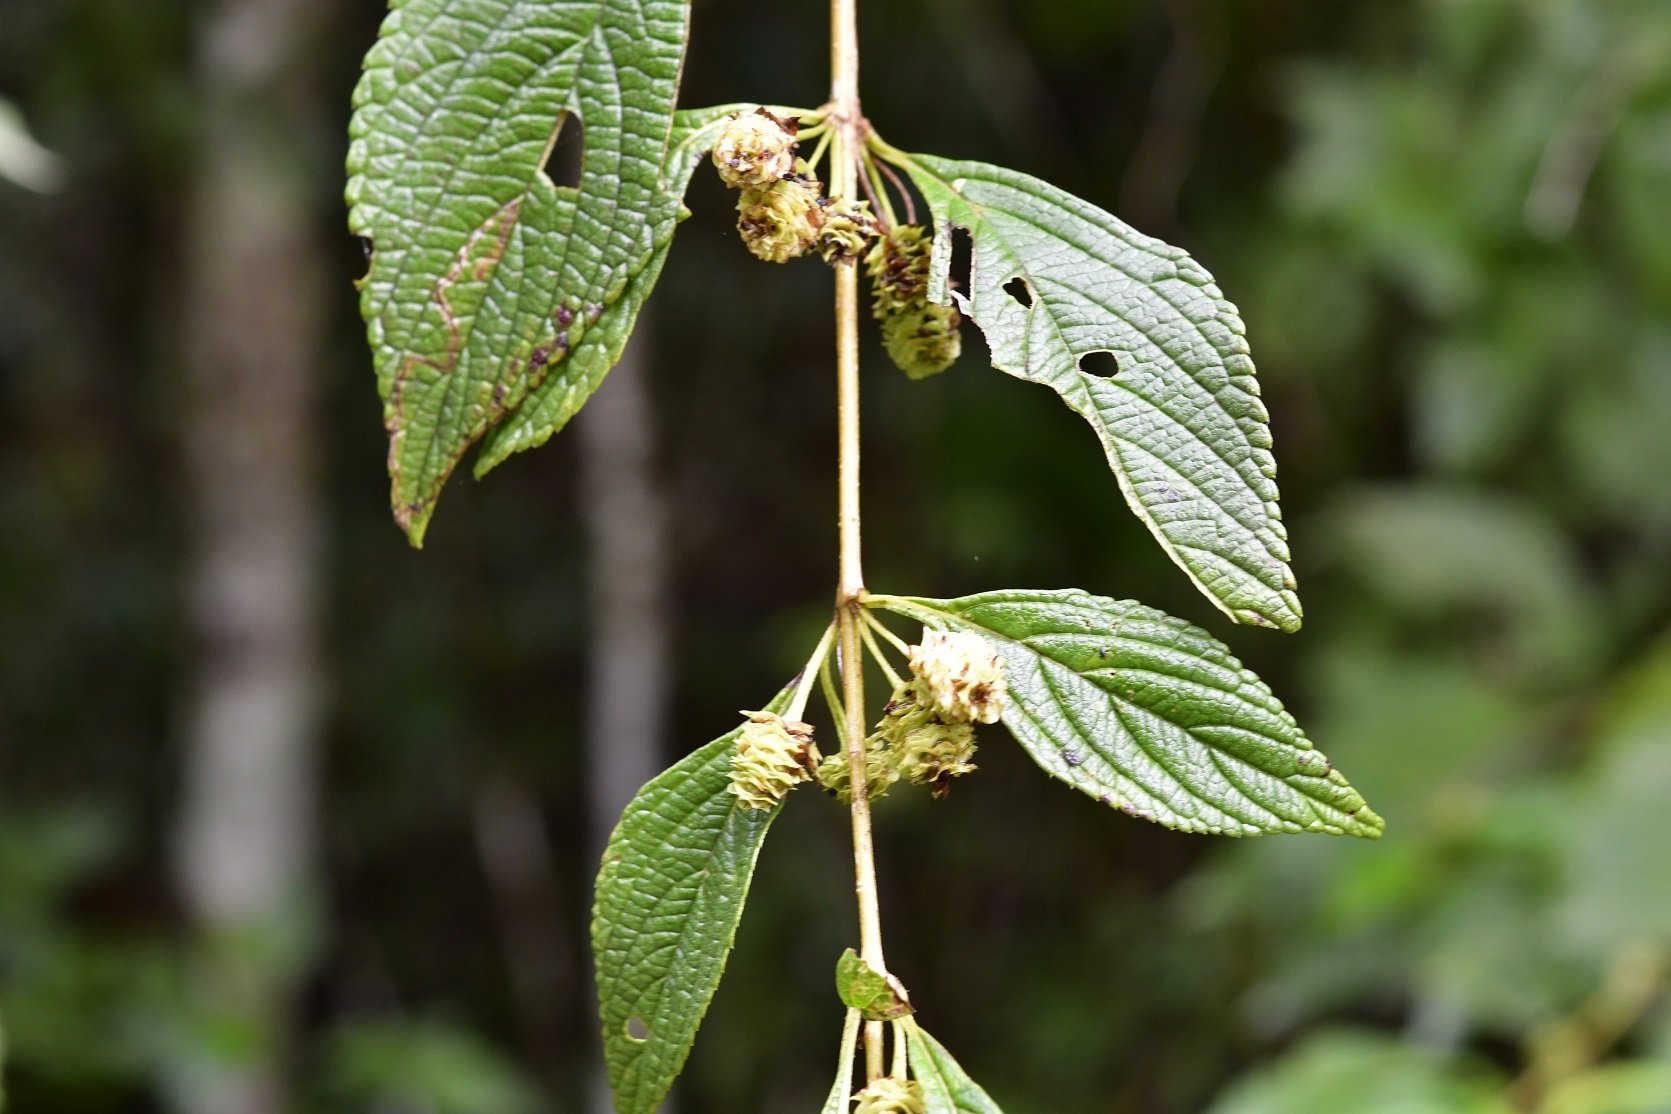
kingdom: Plantae
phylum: Tracheophyta
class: Magnoliopsida
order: Lamiales
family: Verbenaceae
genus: Lippia
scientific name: Lippia cardiostegia
